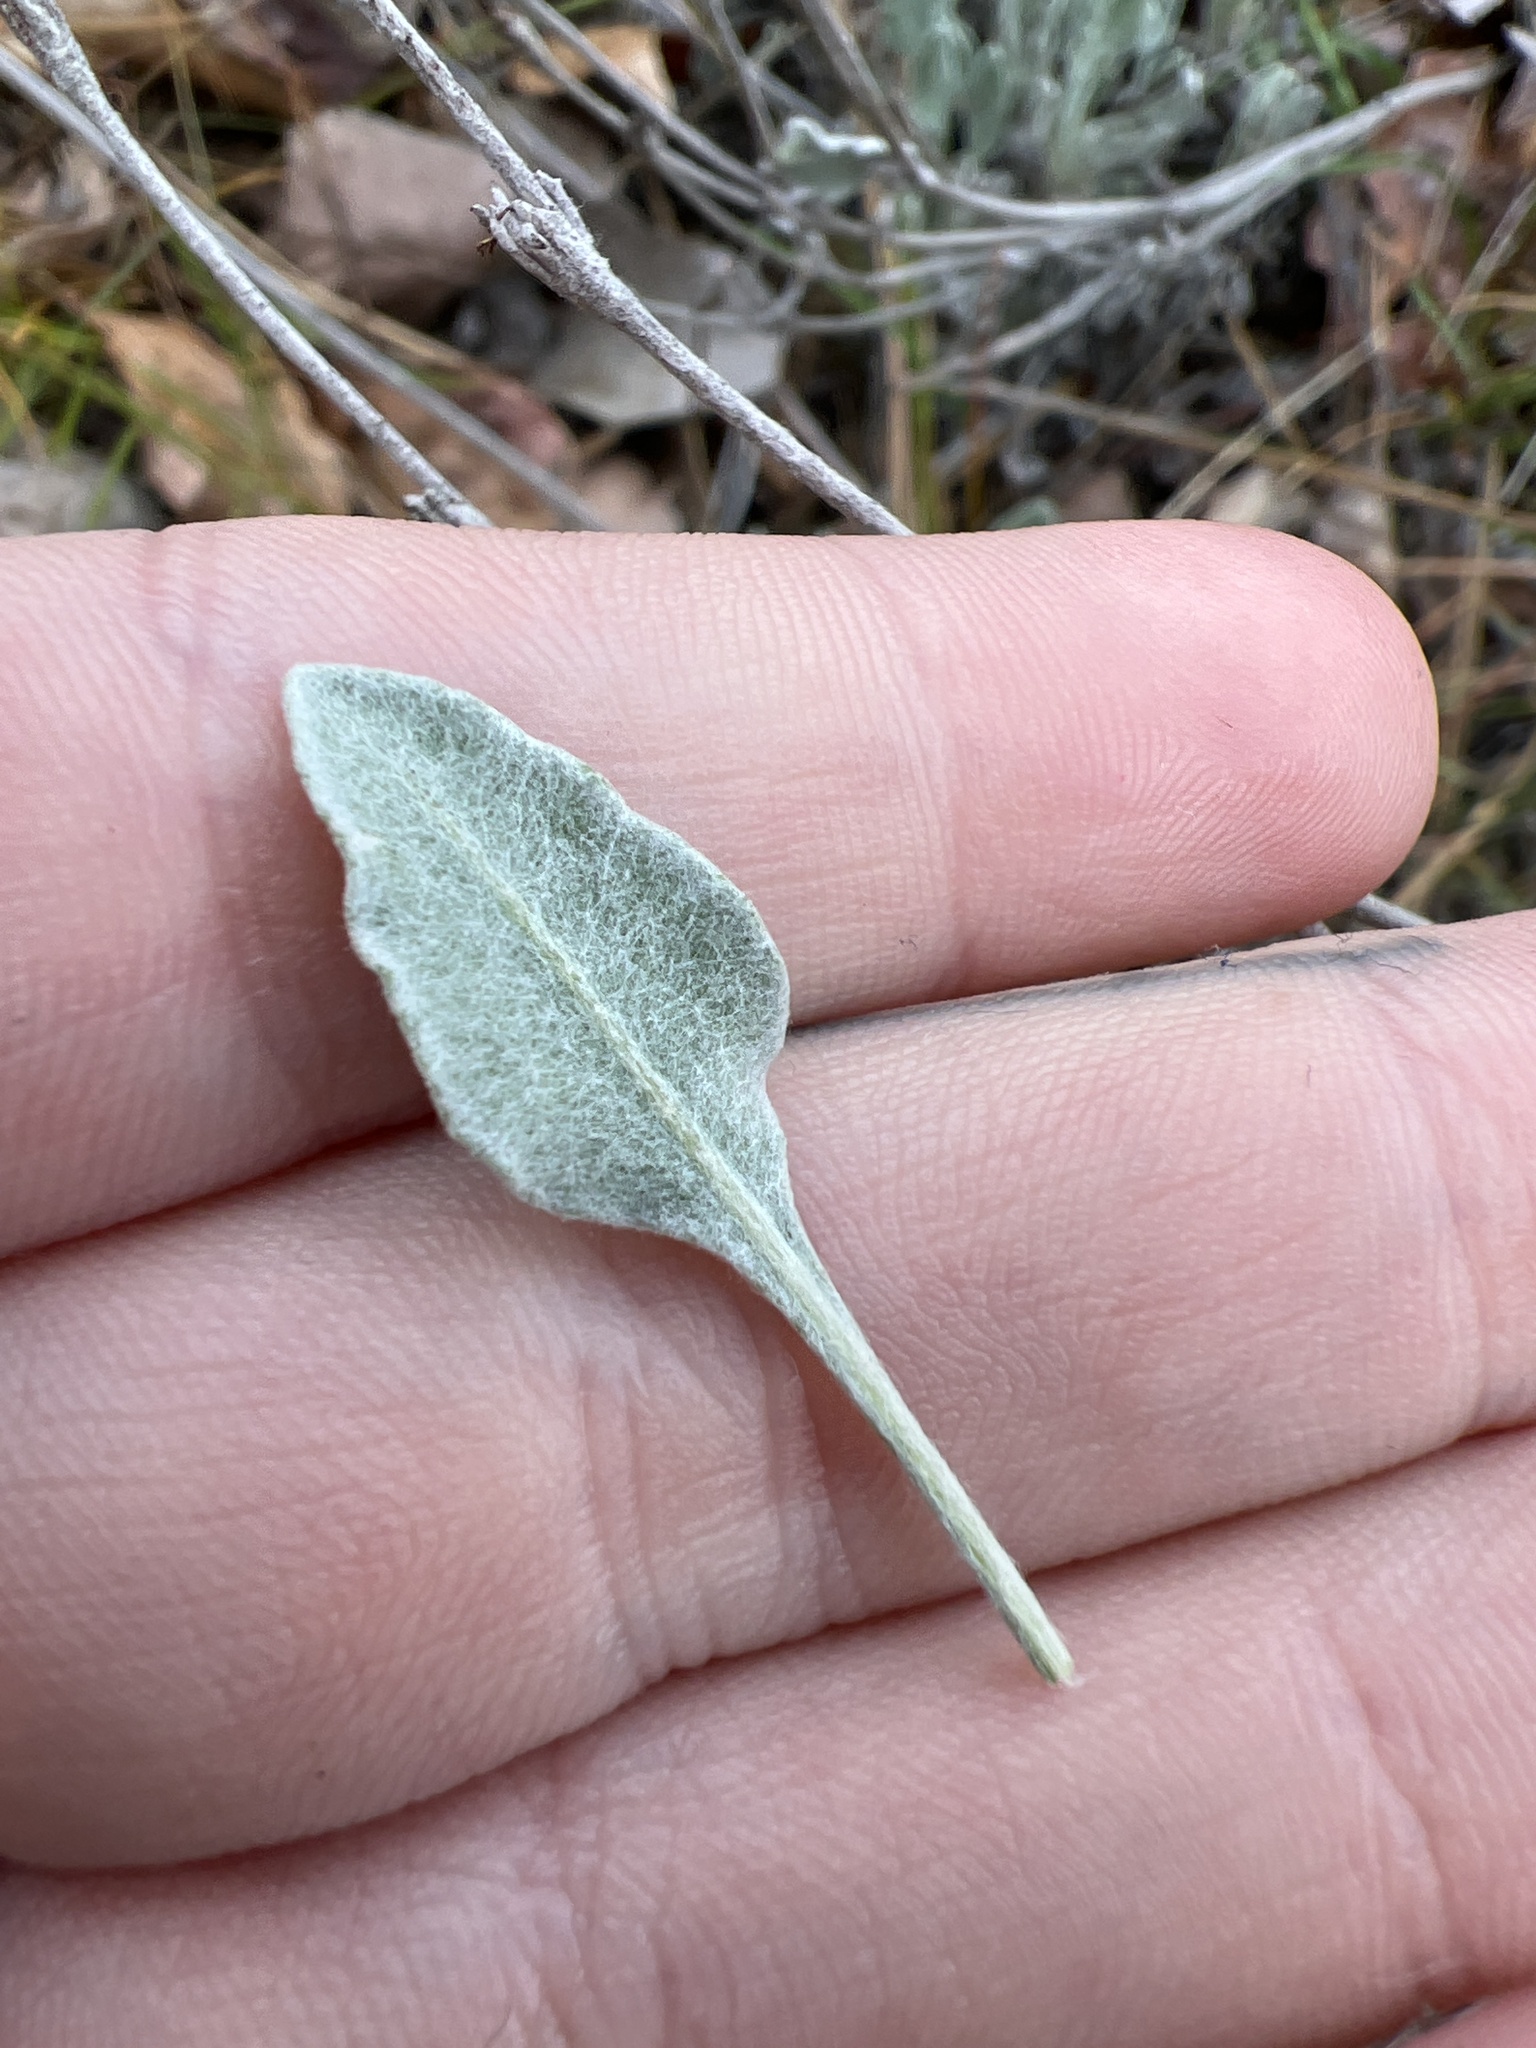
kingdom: Plantae
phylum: Tracheophyta
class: Magnoliopsida
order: Caryophyllales
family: Polygonaceae
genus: Eriogonum
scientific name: Eriogonum niveum
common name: Snow wild buckwheat
